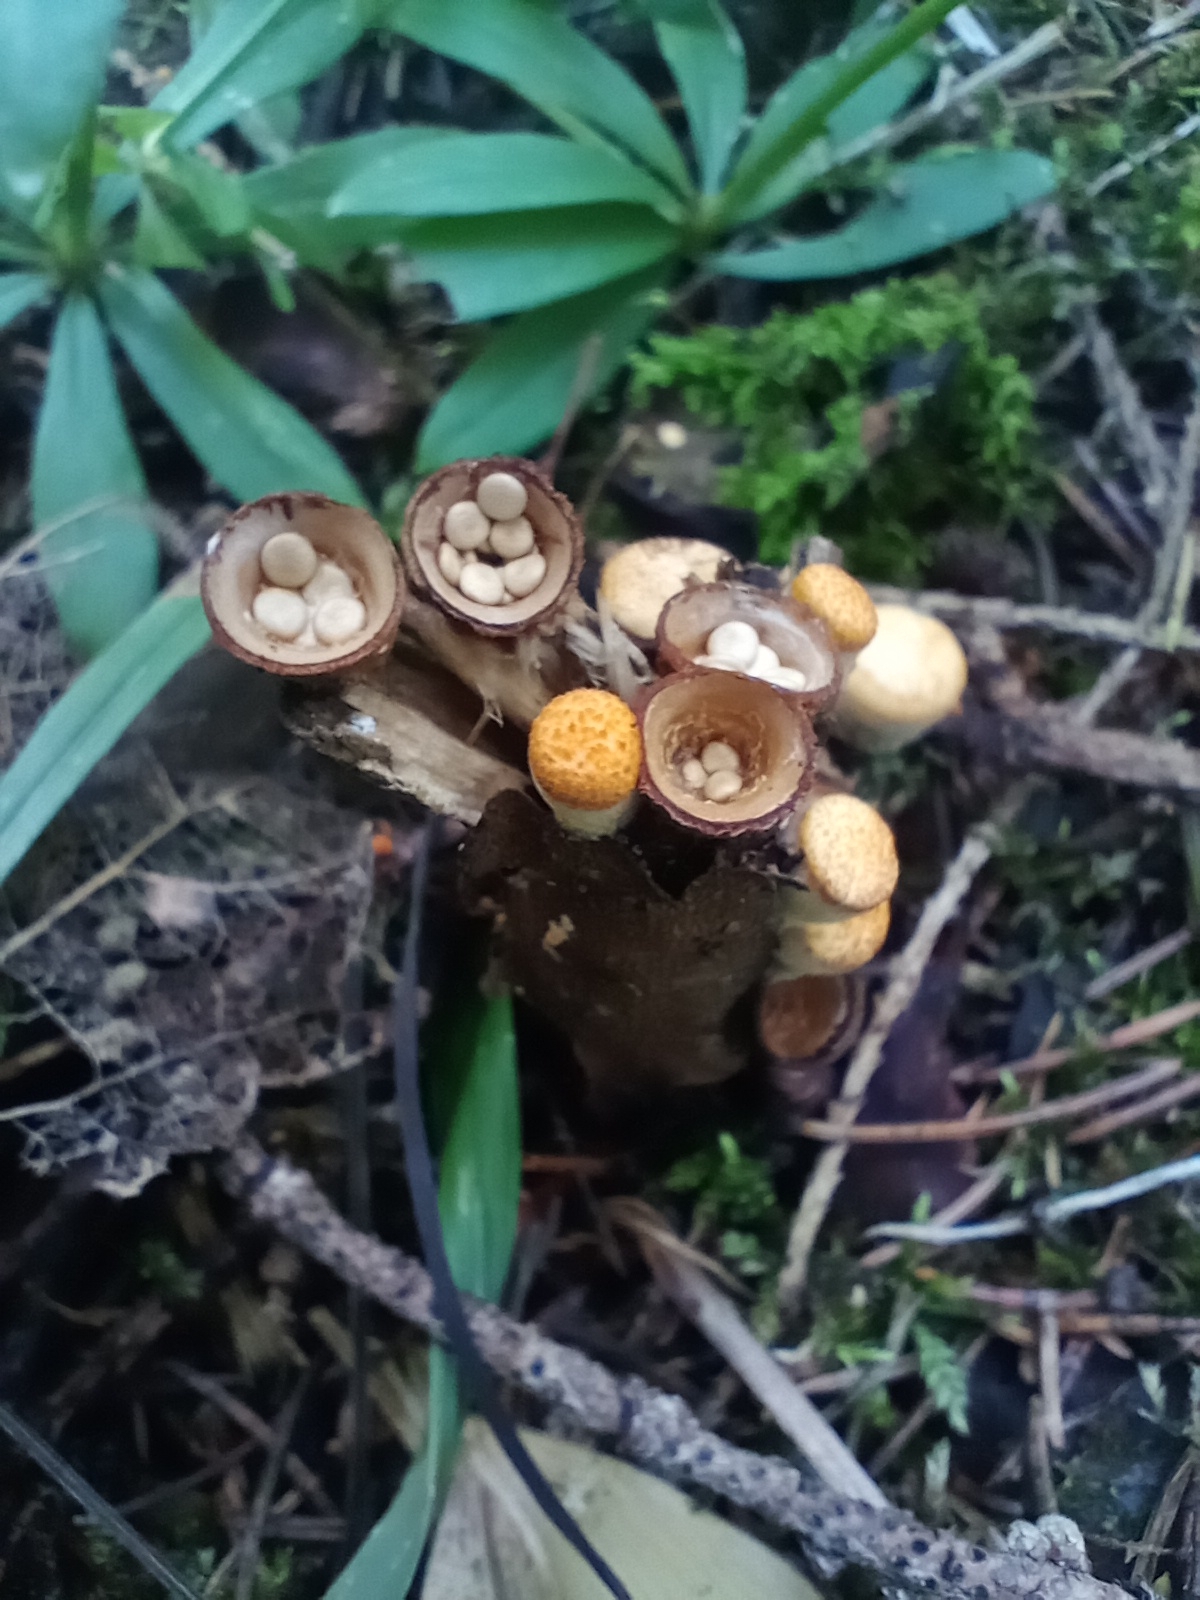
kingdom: Fungi
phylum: Basidiomycota
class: Agaricomycetes
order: Agaricales
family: Nidulariaceae
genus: Crucibulum
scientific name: Crucibulum laeve
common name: Common bird's nest
